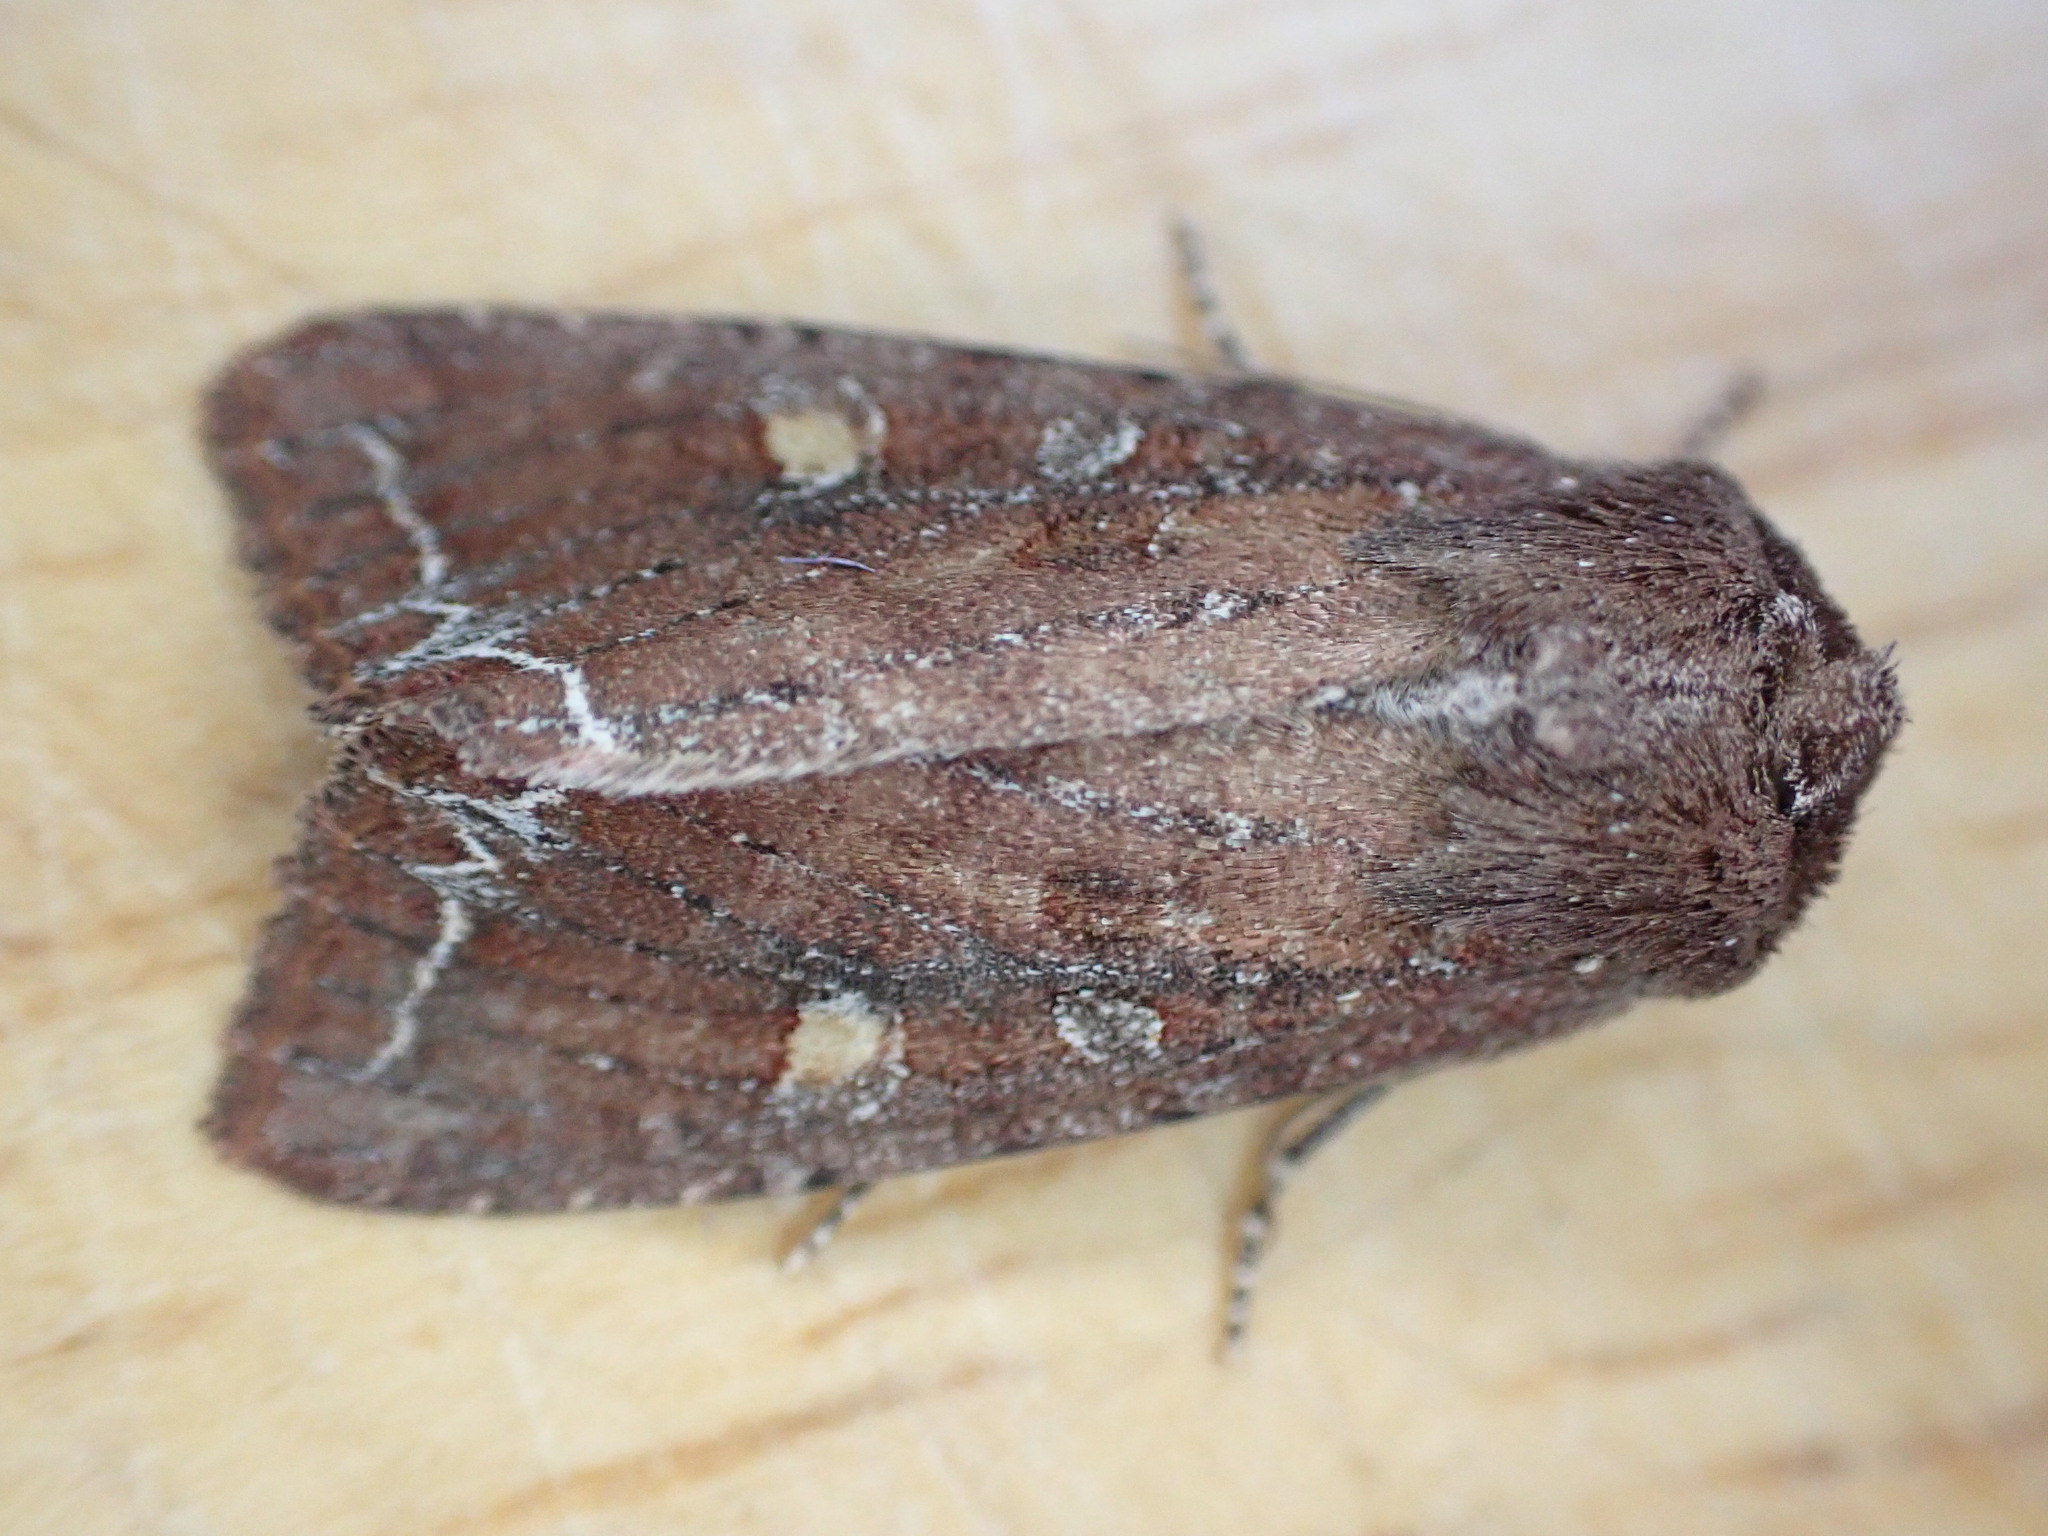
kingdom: Animalia
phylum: Arthropoda
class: Insecta
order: Lepidoptera
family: Noctuidae
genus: Lacanobia
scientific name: Lacanobia oleracea
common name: Bright-line brown-eye
